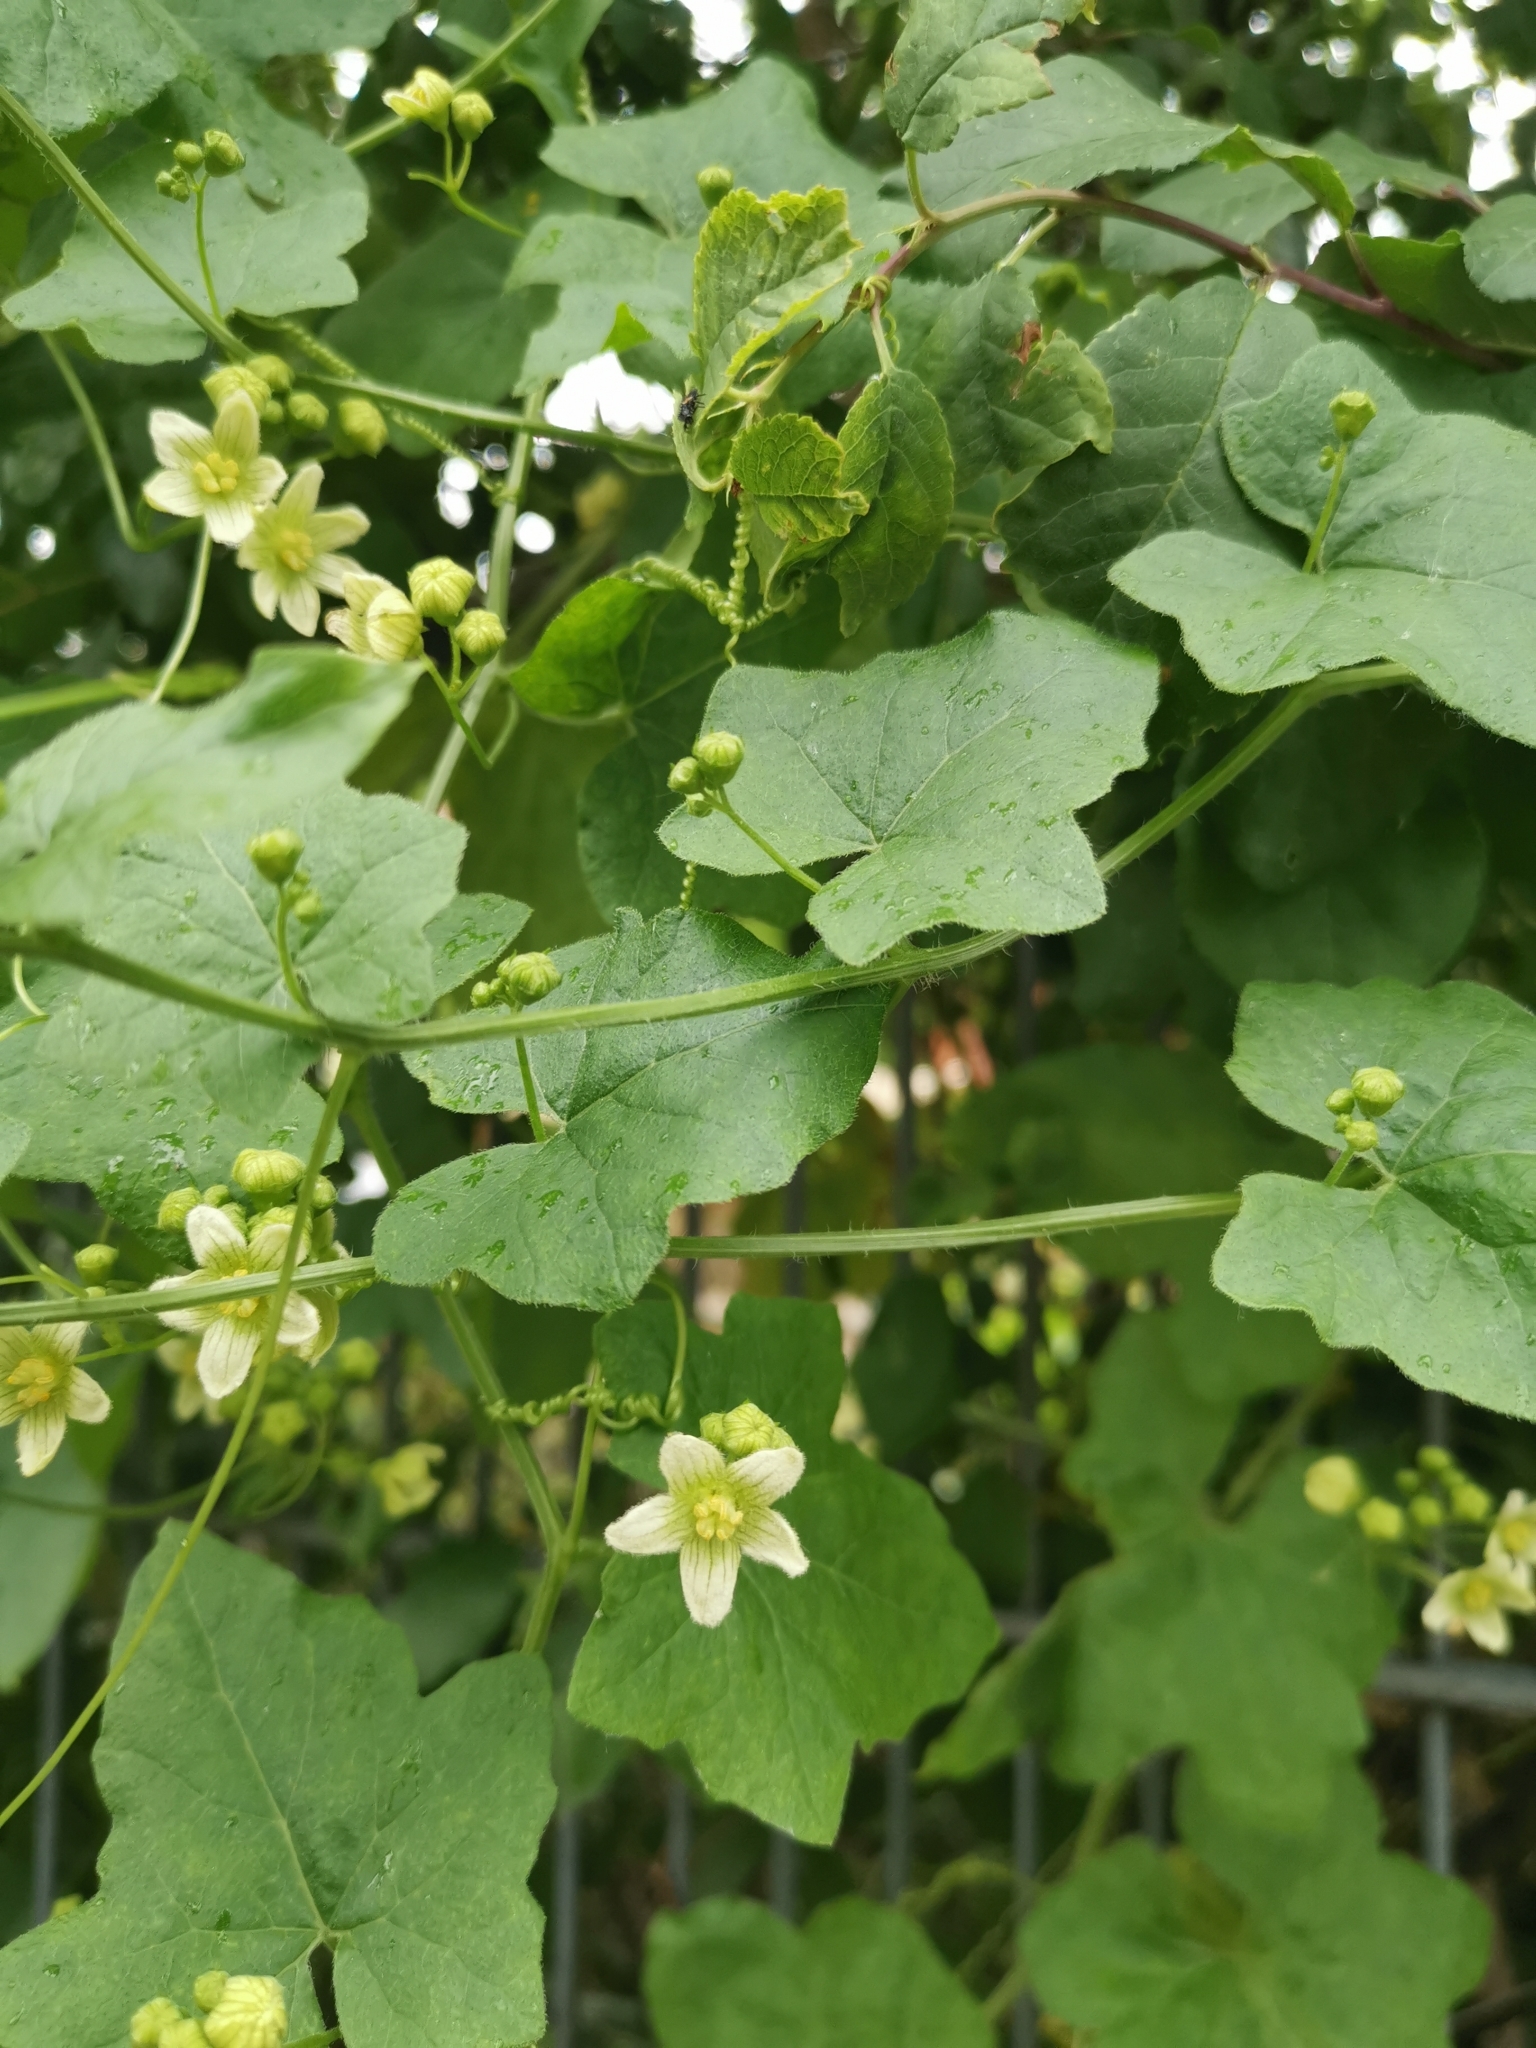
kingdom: Plantae
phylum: Tracheophyta
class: Magnoliopsida
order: Cucurbitales
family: Cucurbitaceae
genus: Bryonia
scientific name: Bryonia cretica
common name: Cretan bryony
